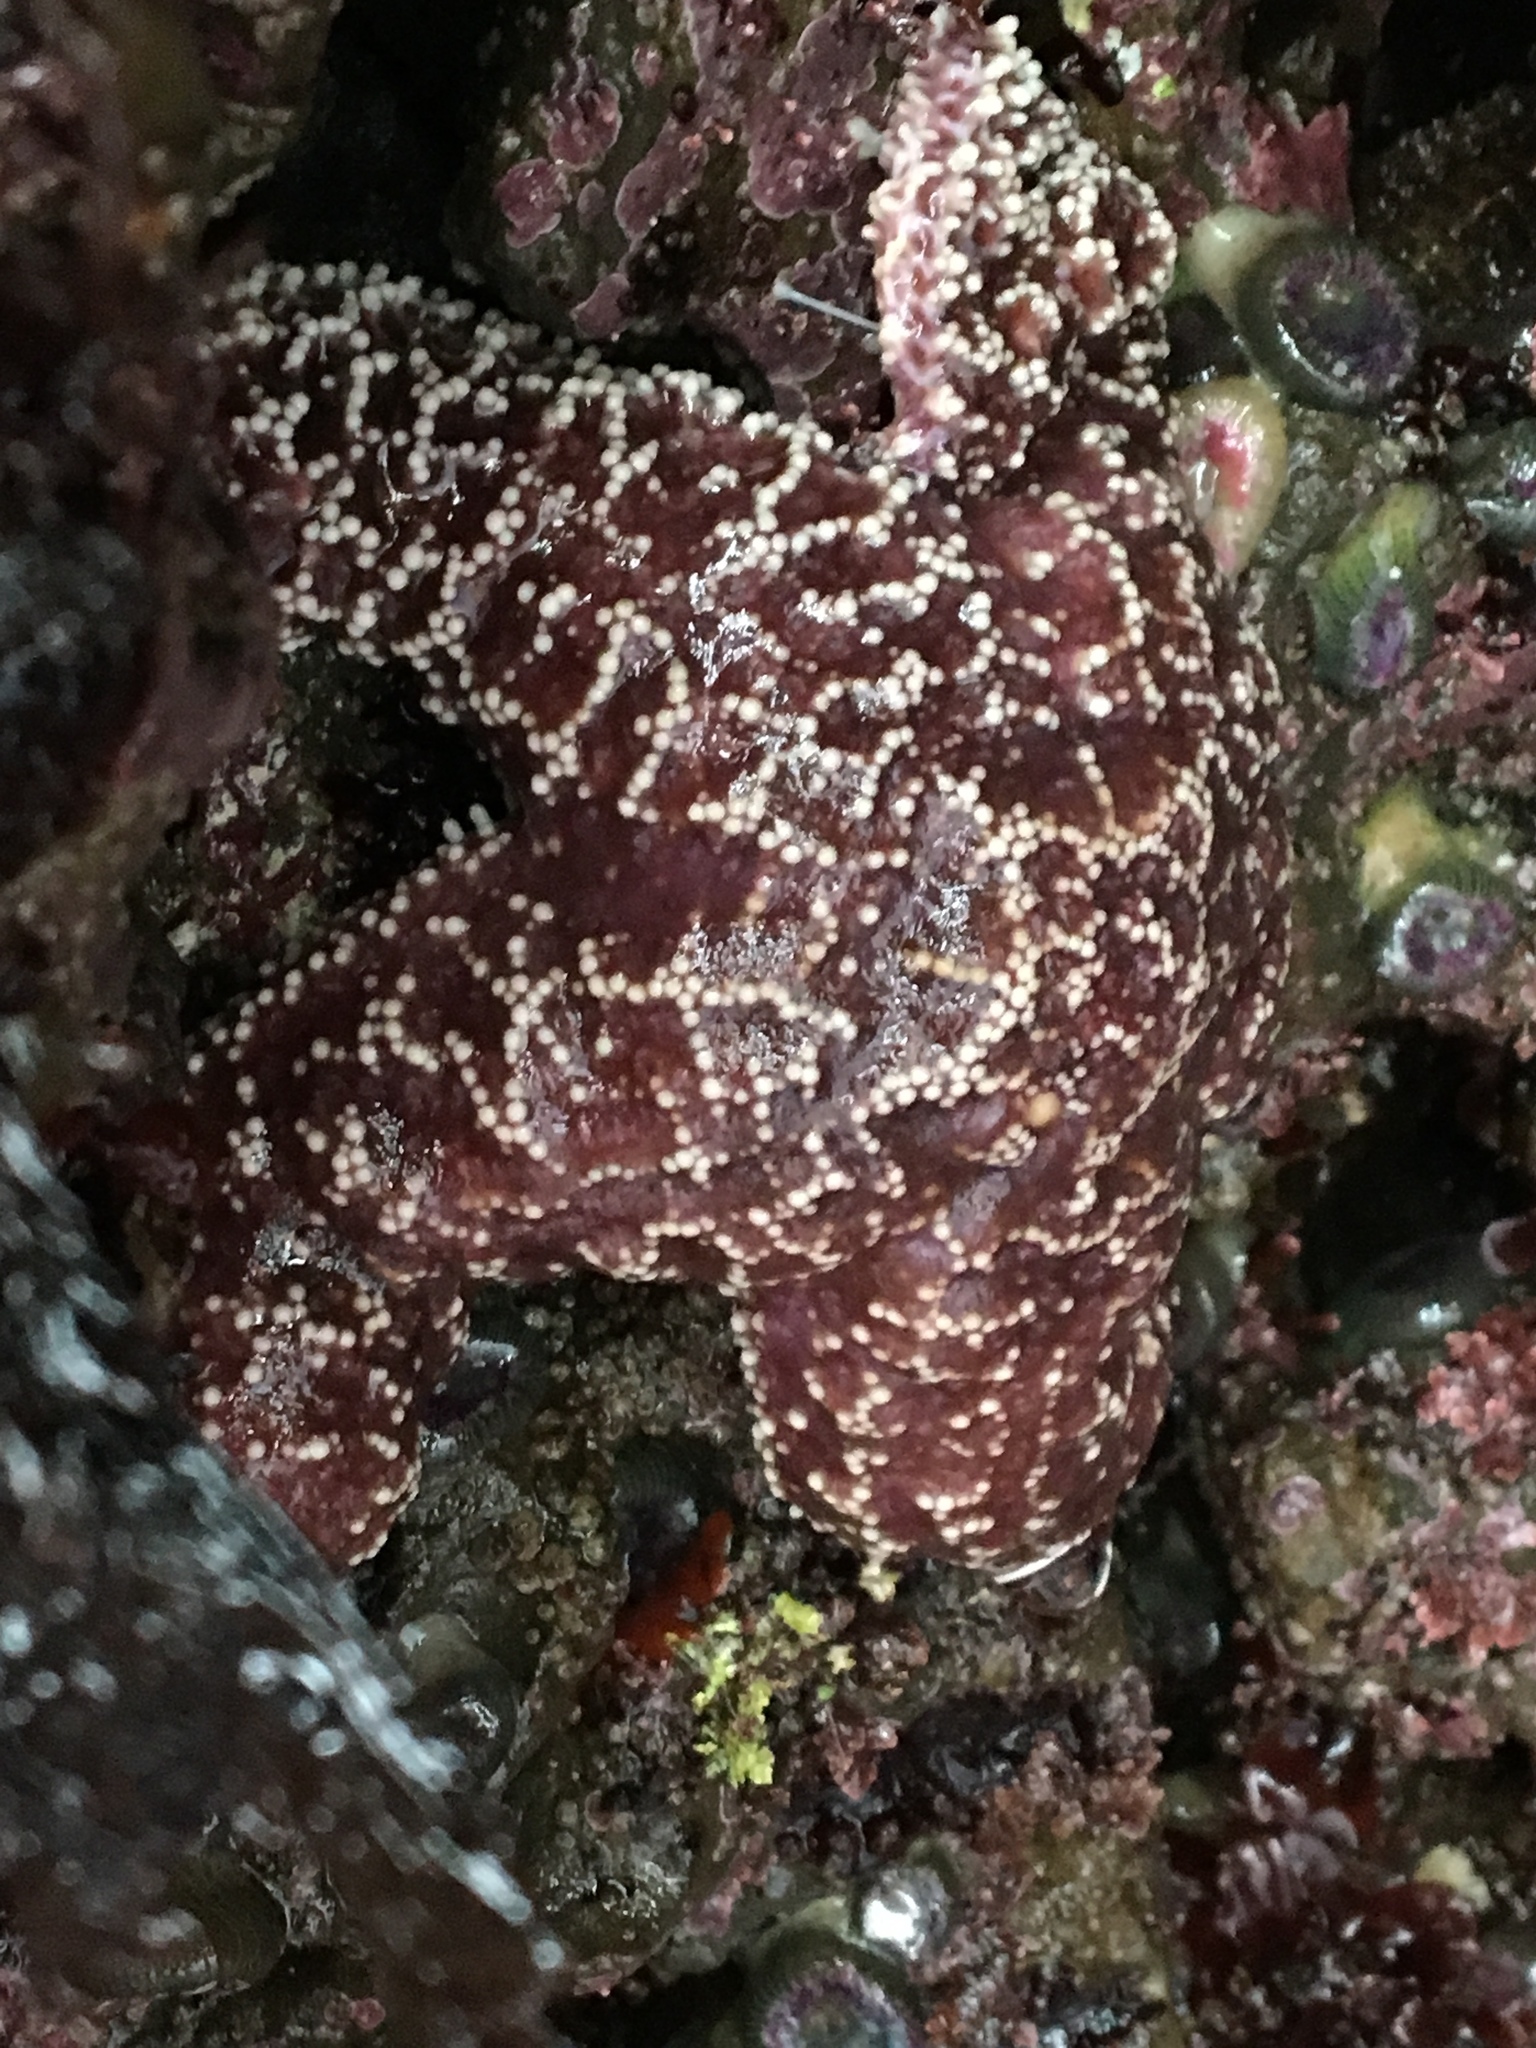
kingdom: Animalia
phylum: Echinodermata
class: Asteroidea
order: Forcipulatida
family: Asteriidae
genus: Pisaster
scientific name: Pisaster ochraceus
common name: Ochre stars
